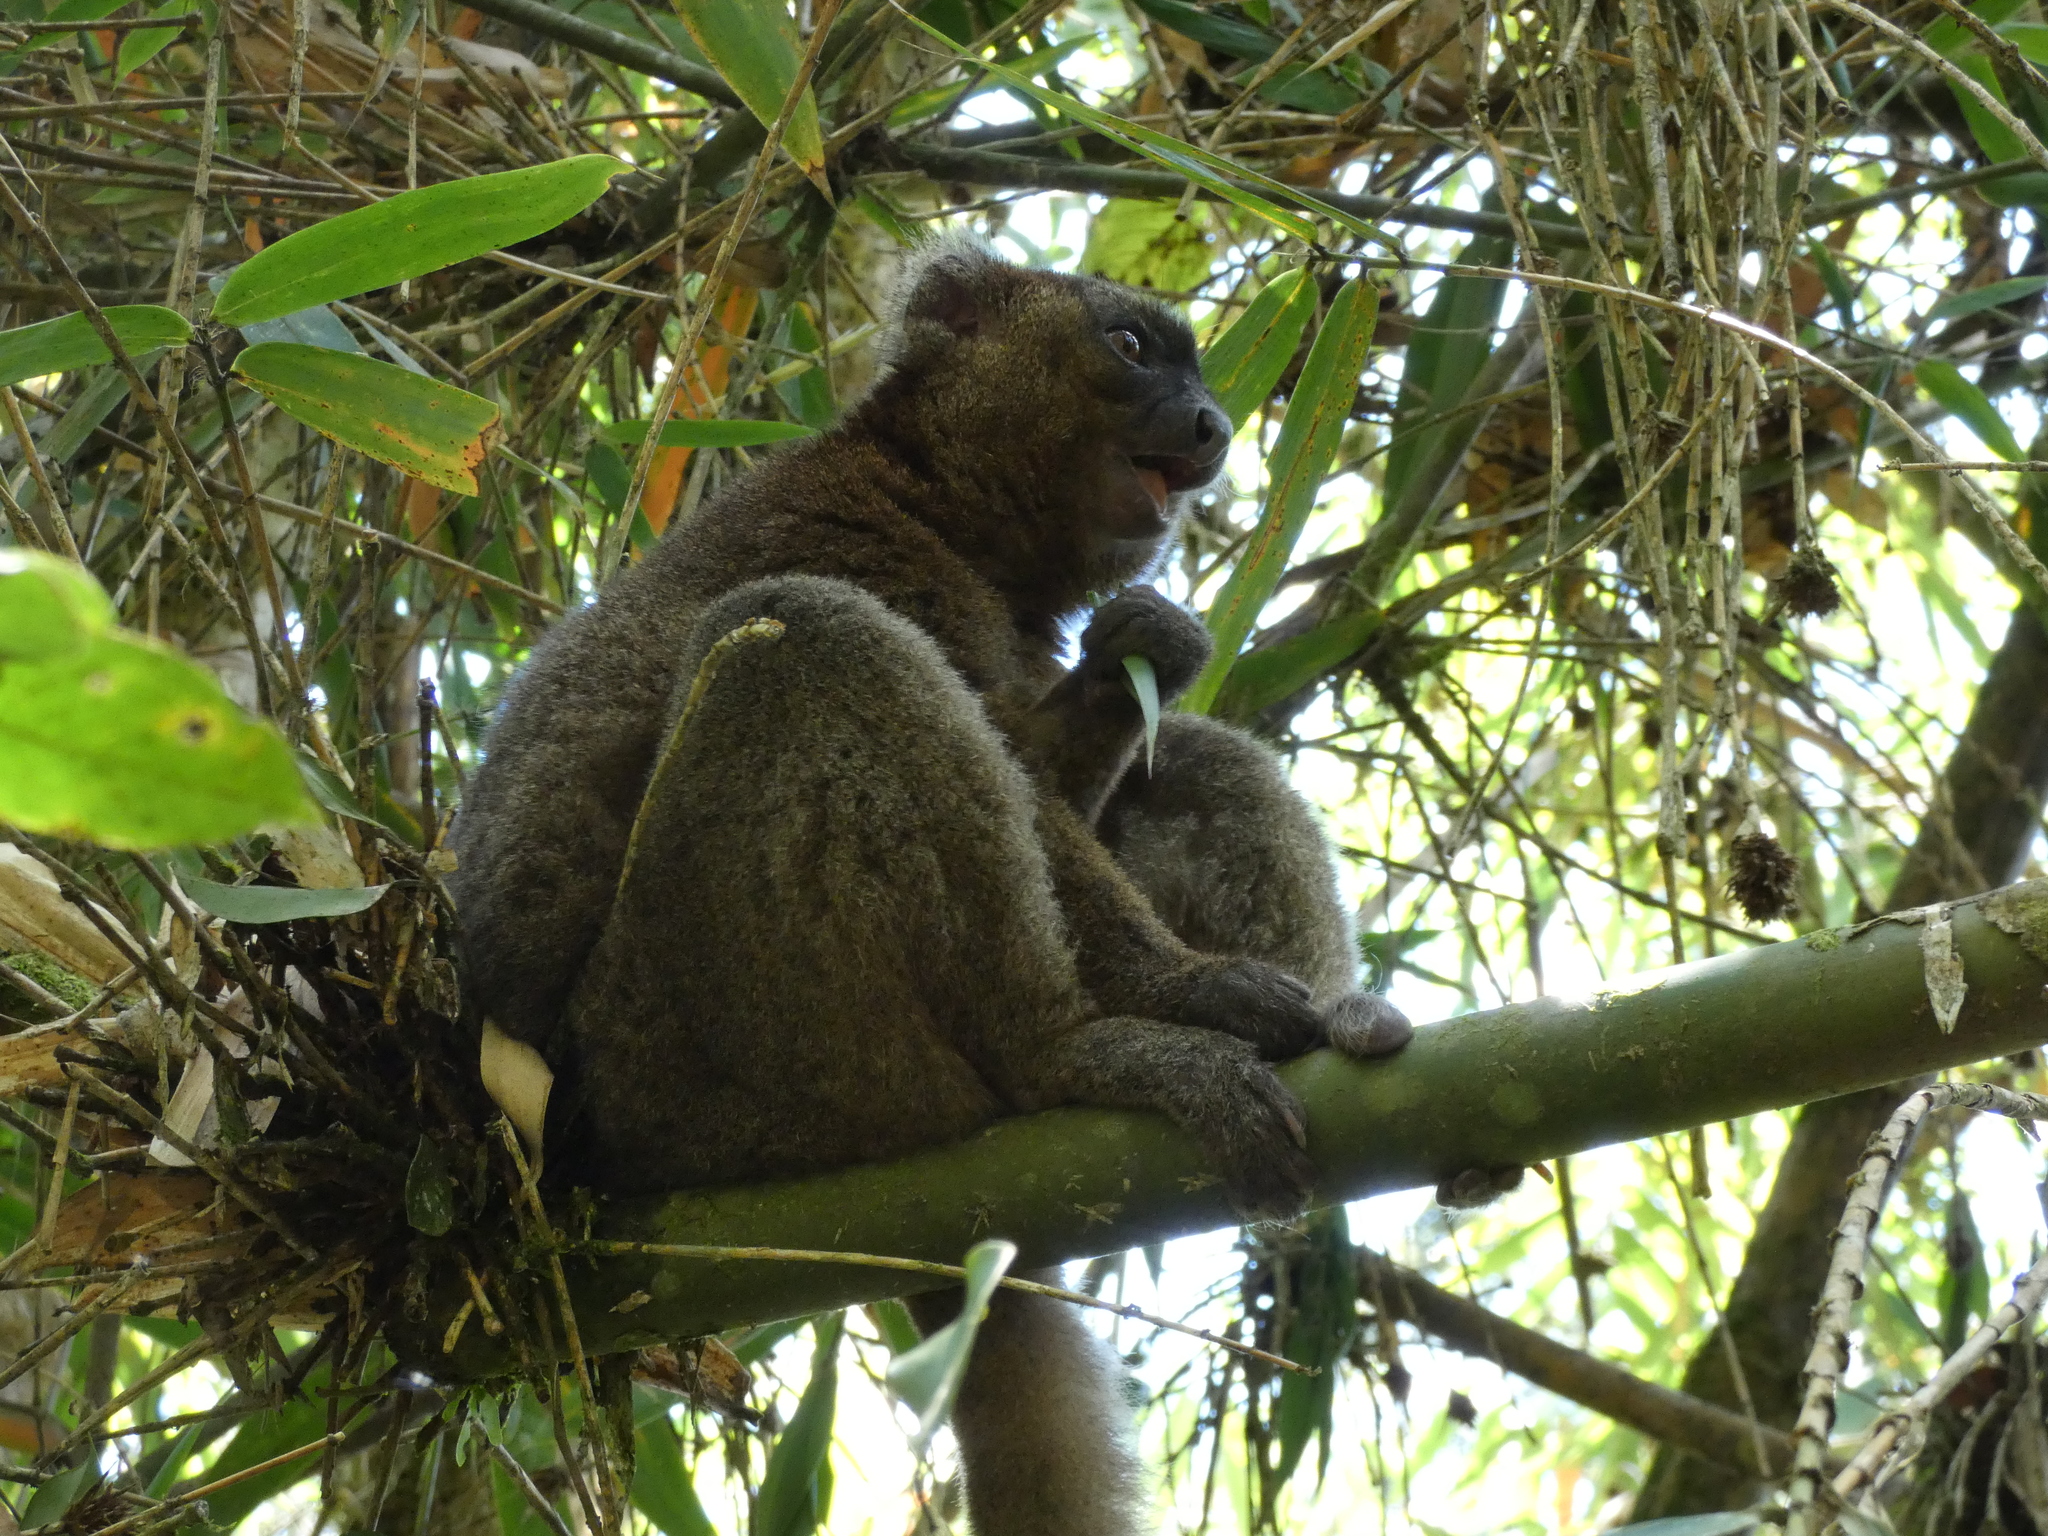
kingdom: Animalia
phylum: Chordata
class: Mammalia
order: Primates
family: Lemuridae
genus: Prolemur
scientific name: Prolemur simus
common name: Greater bamboo lemur
